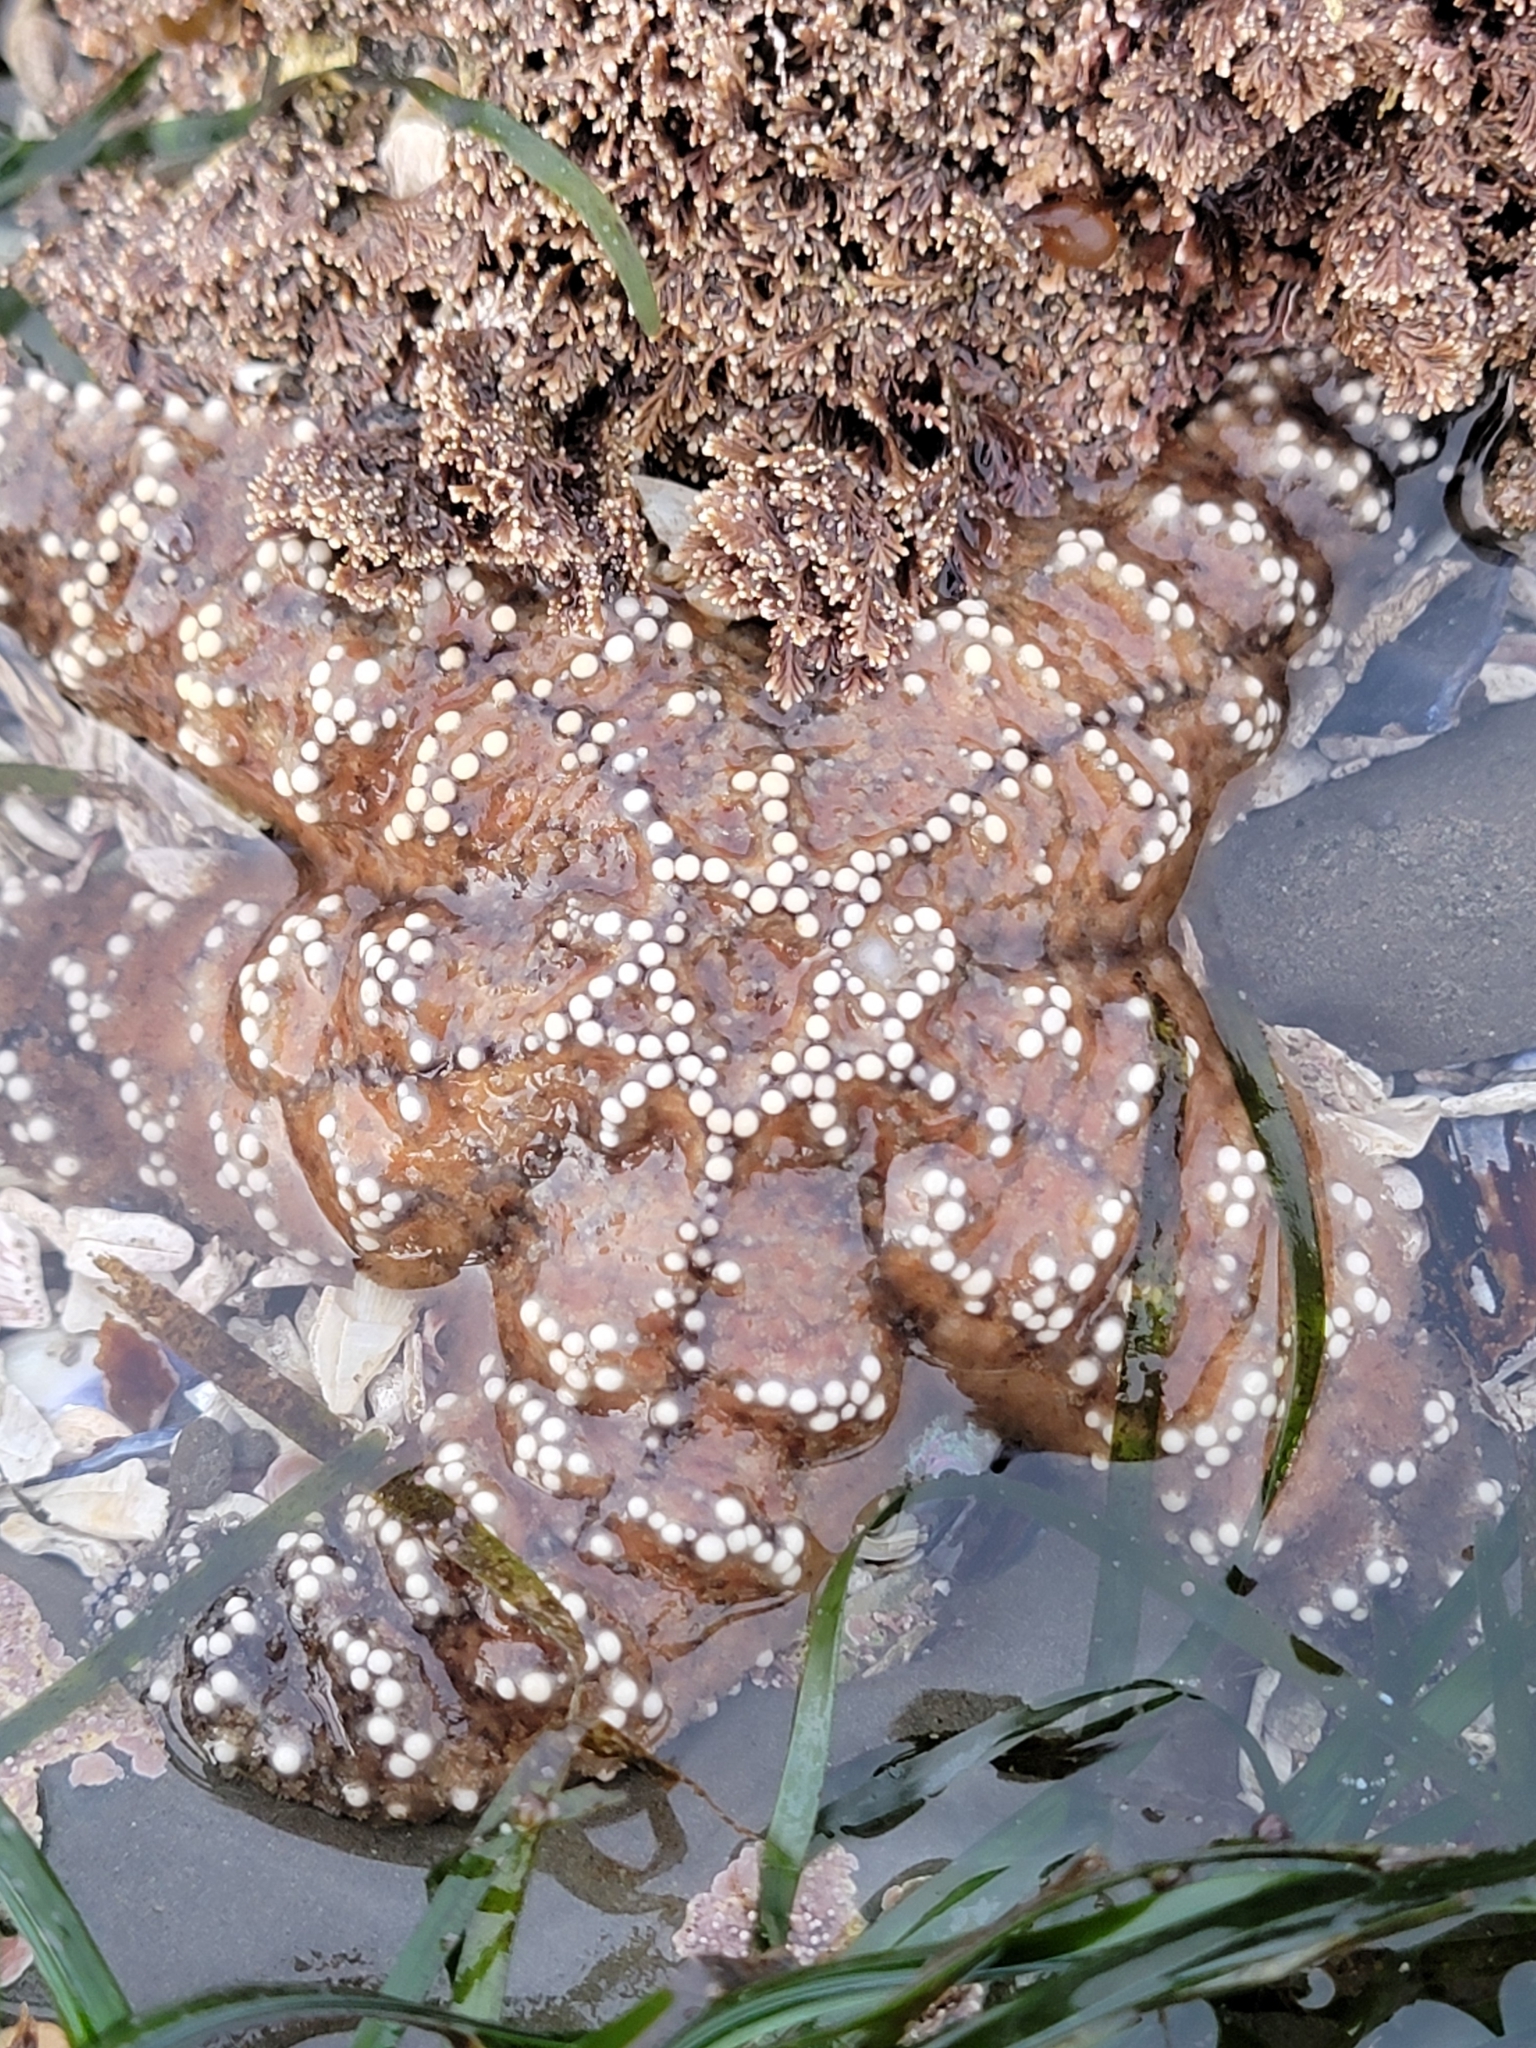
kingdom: Animalia
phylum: Echinodermata
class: Asteroidea
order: Forcipulatida
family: Asteriidae
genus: Pisaster
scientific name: Pisaster ochraceus
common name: Ochre stars
